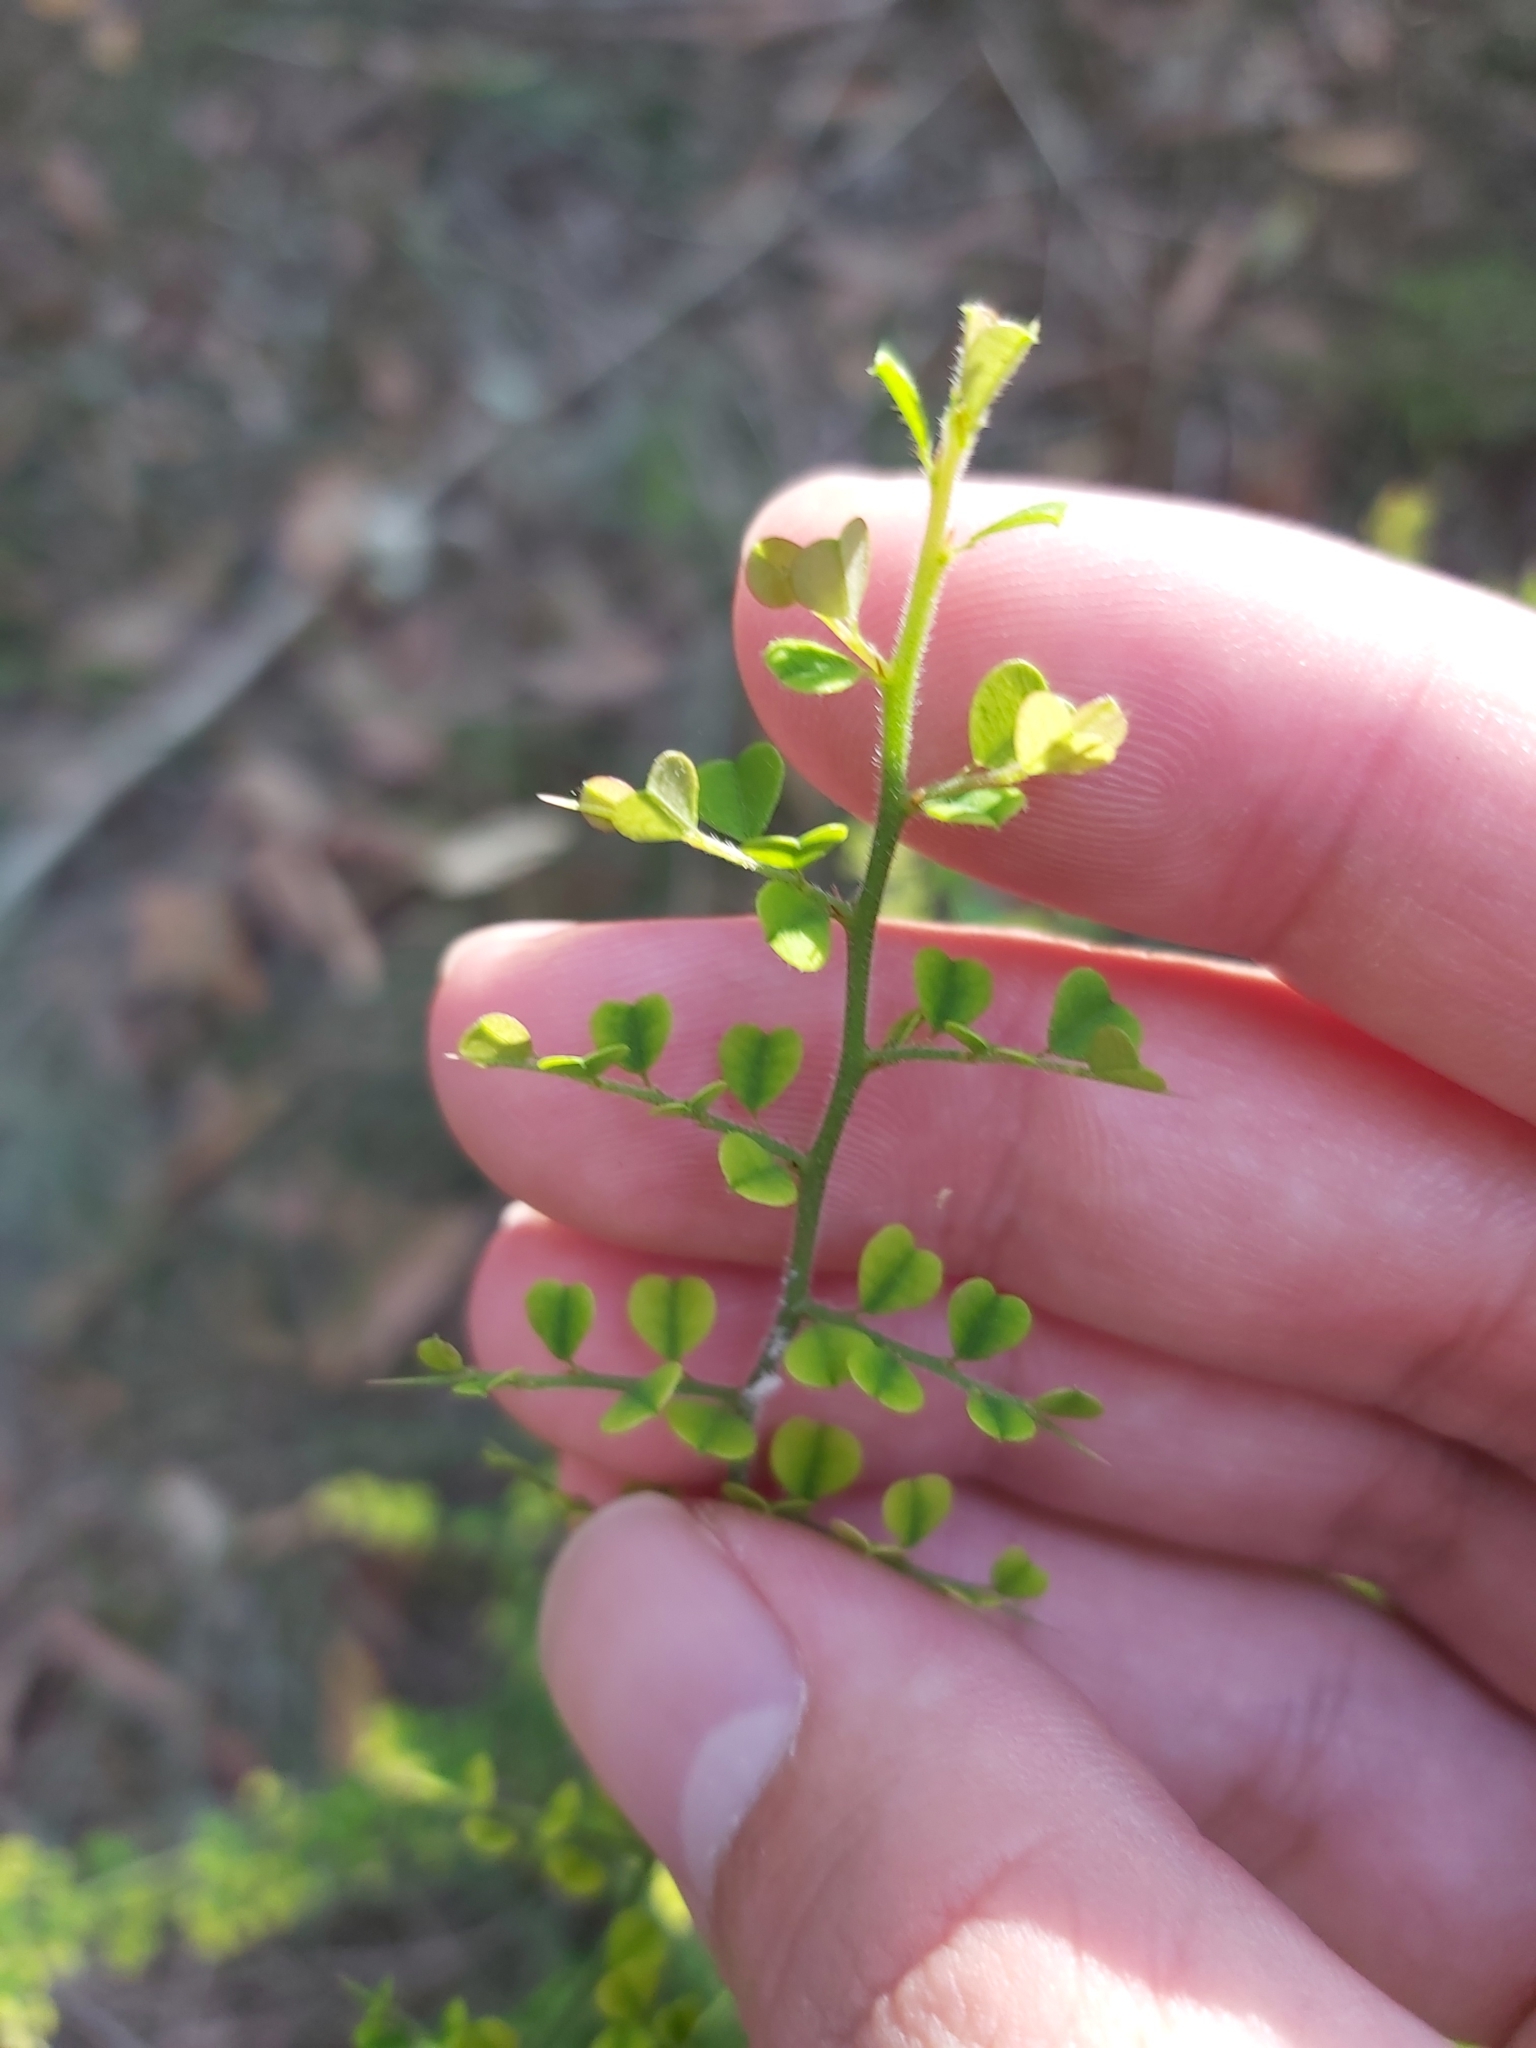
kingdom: Plantae
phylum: Tracheophyta
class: Magnoliopsida
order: Fabales
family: Fabaceae
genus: Bossiaea
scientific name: Bossiaea obcordata
